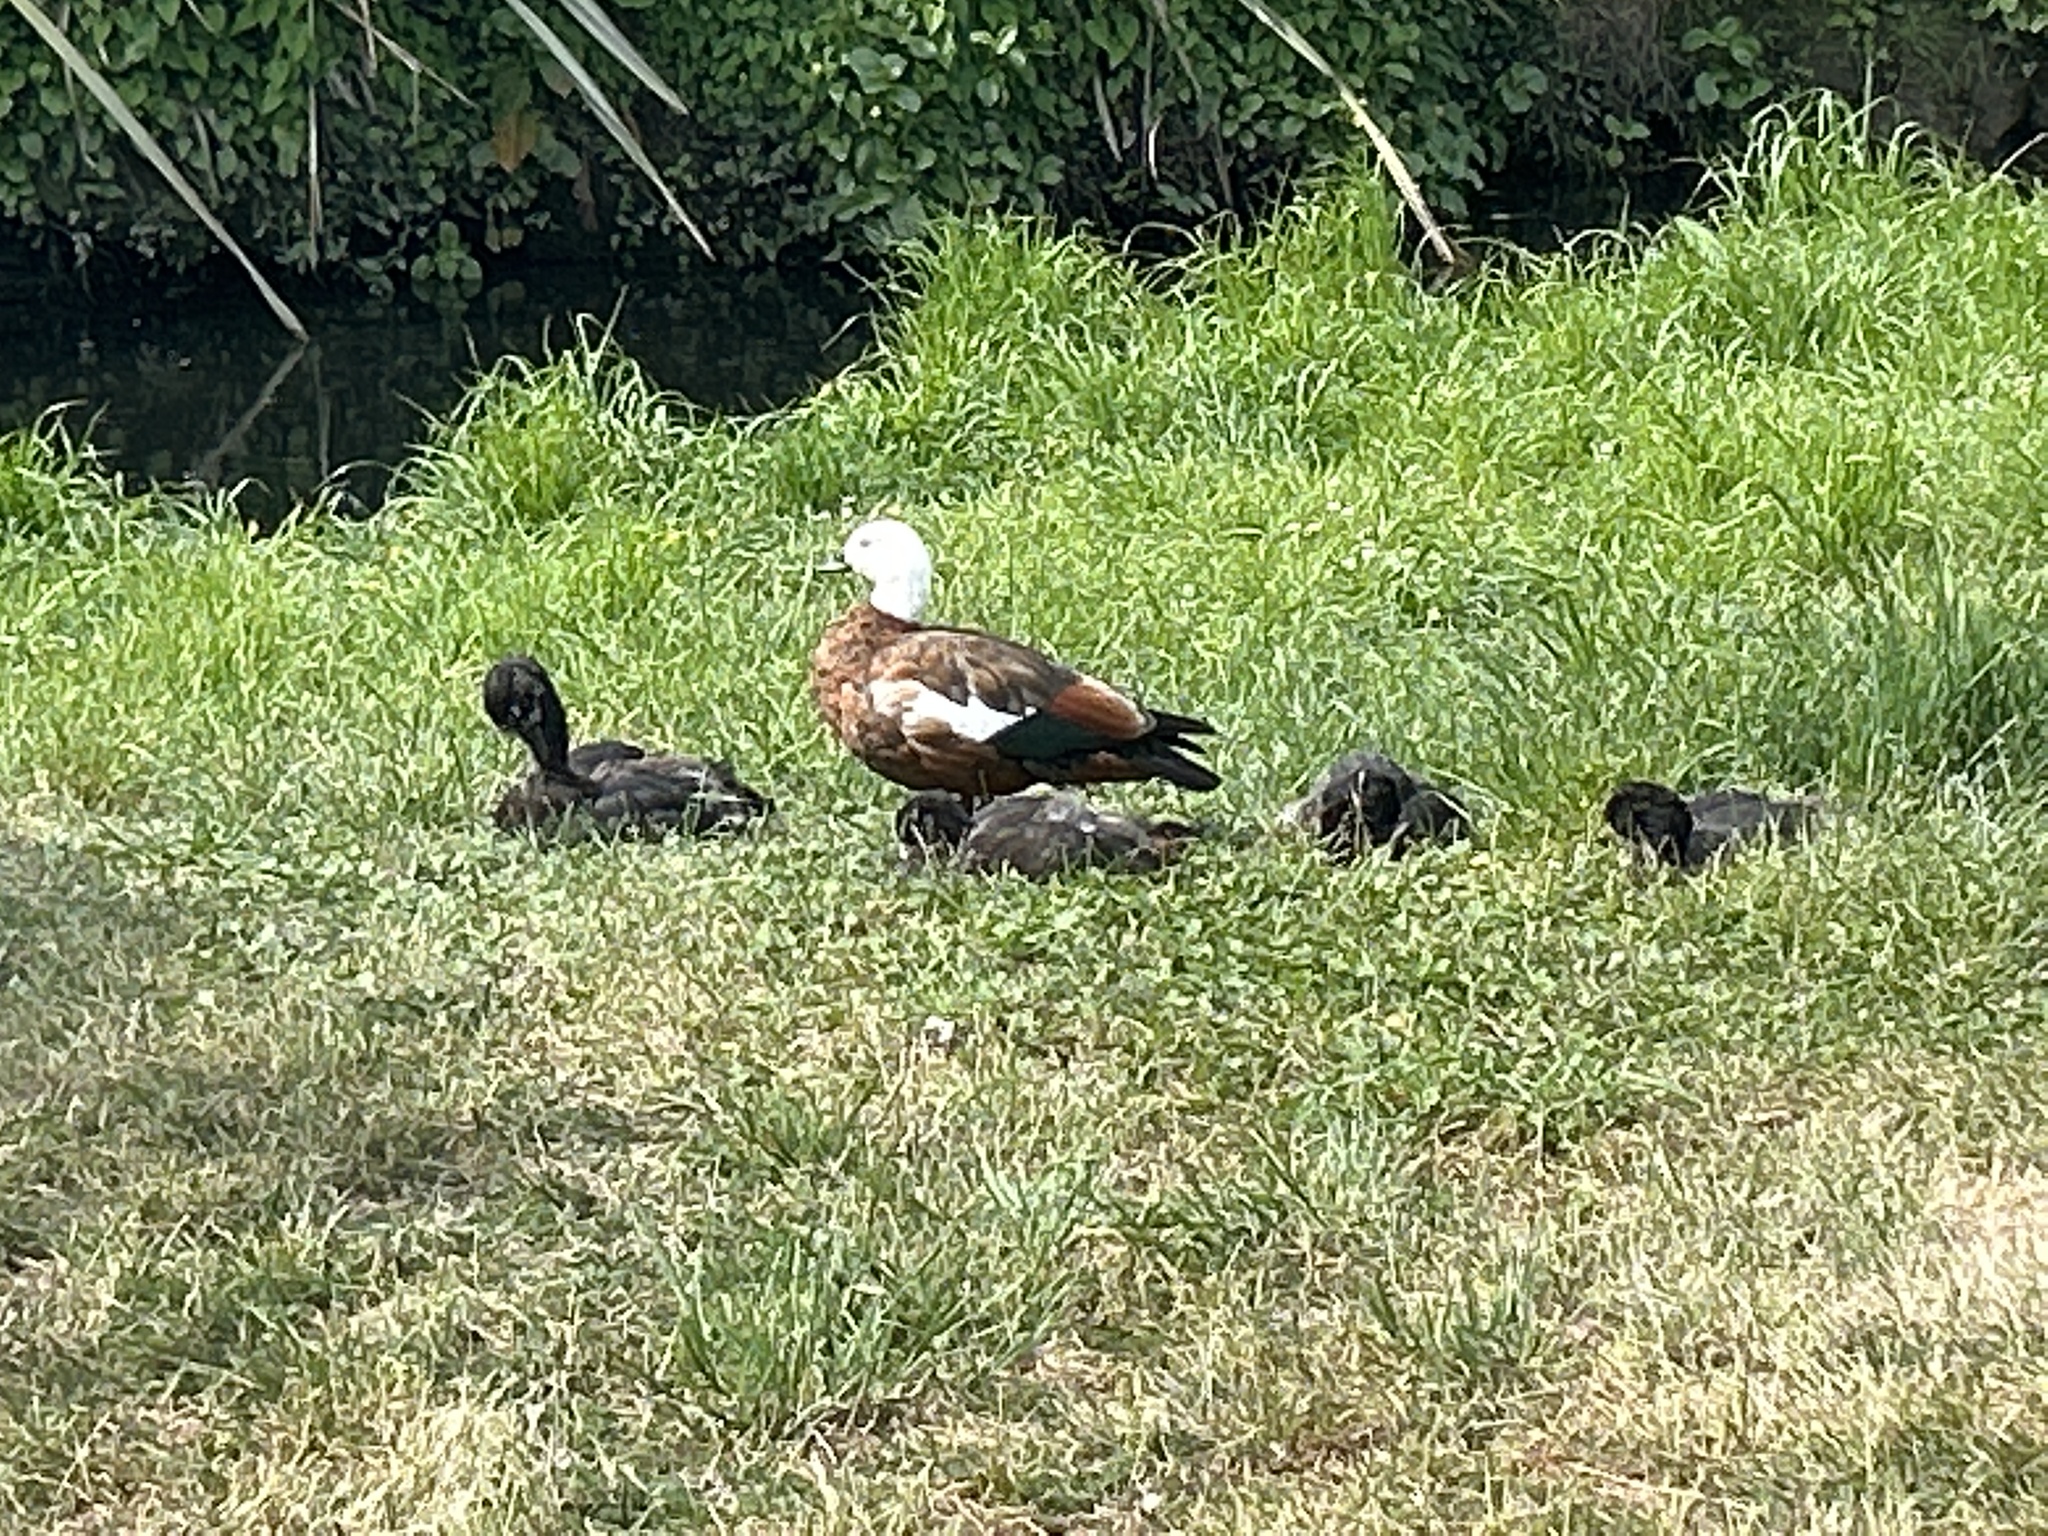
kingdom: Animalia
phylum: Chordata
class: Aves
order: Anseriformes
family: Anatidae
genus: Tadorna
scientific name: Tadorna variegata
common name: Paradise shelduck
